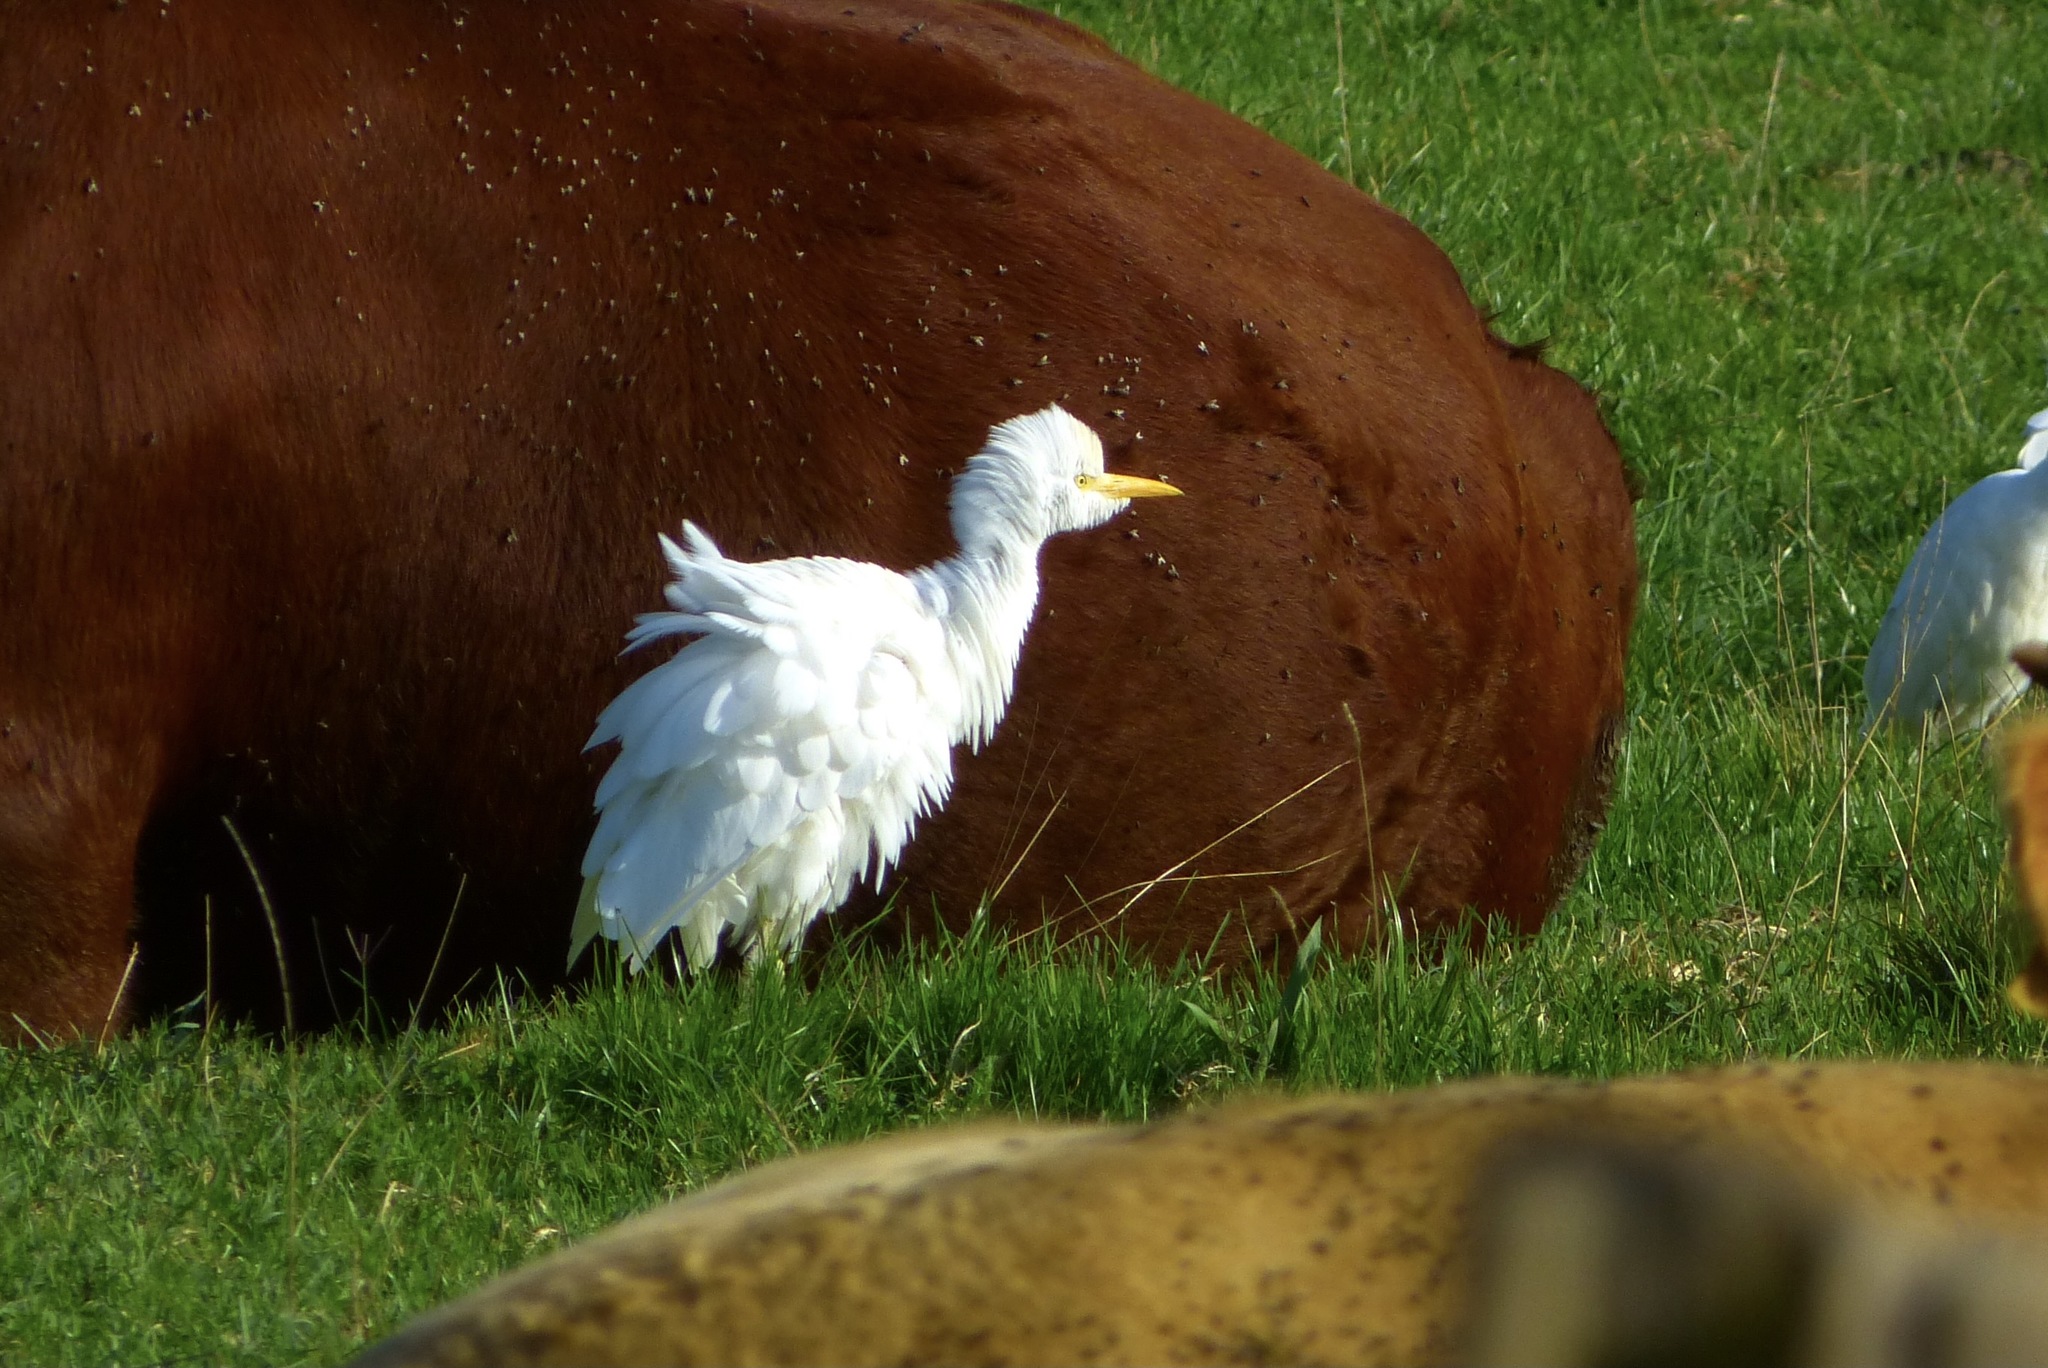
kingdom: Animalia
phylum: Chordata
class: Aves
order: Pelecaniformes
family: Ardeidae
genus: Bubulcus
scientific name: Bubulcus ibis
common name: Cattle egret
